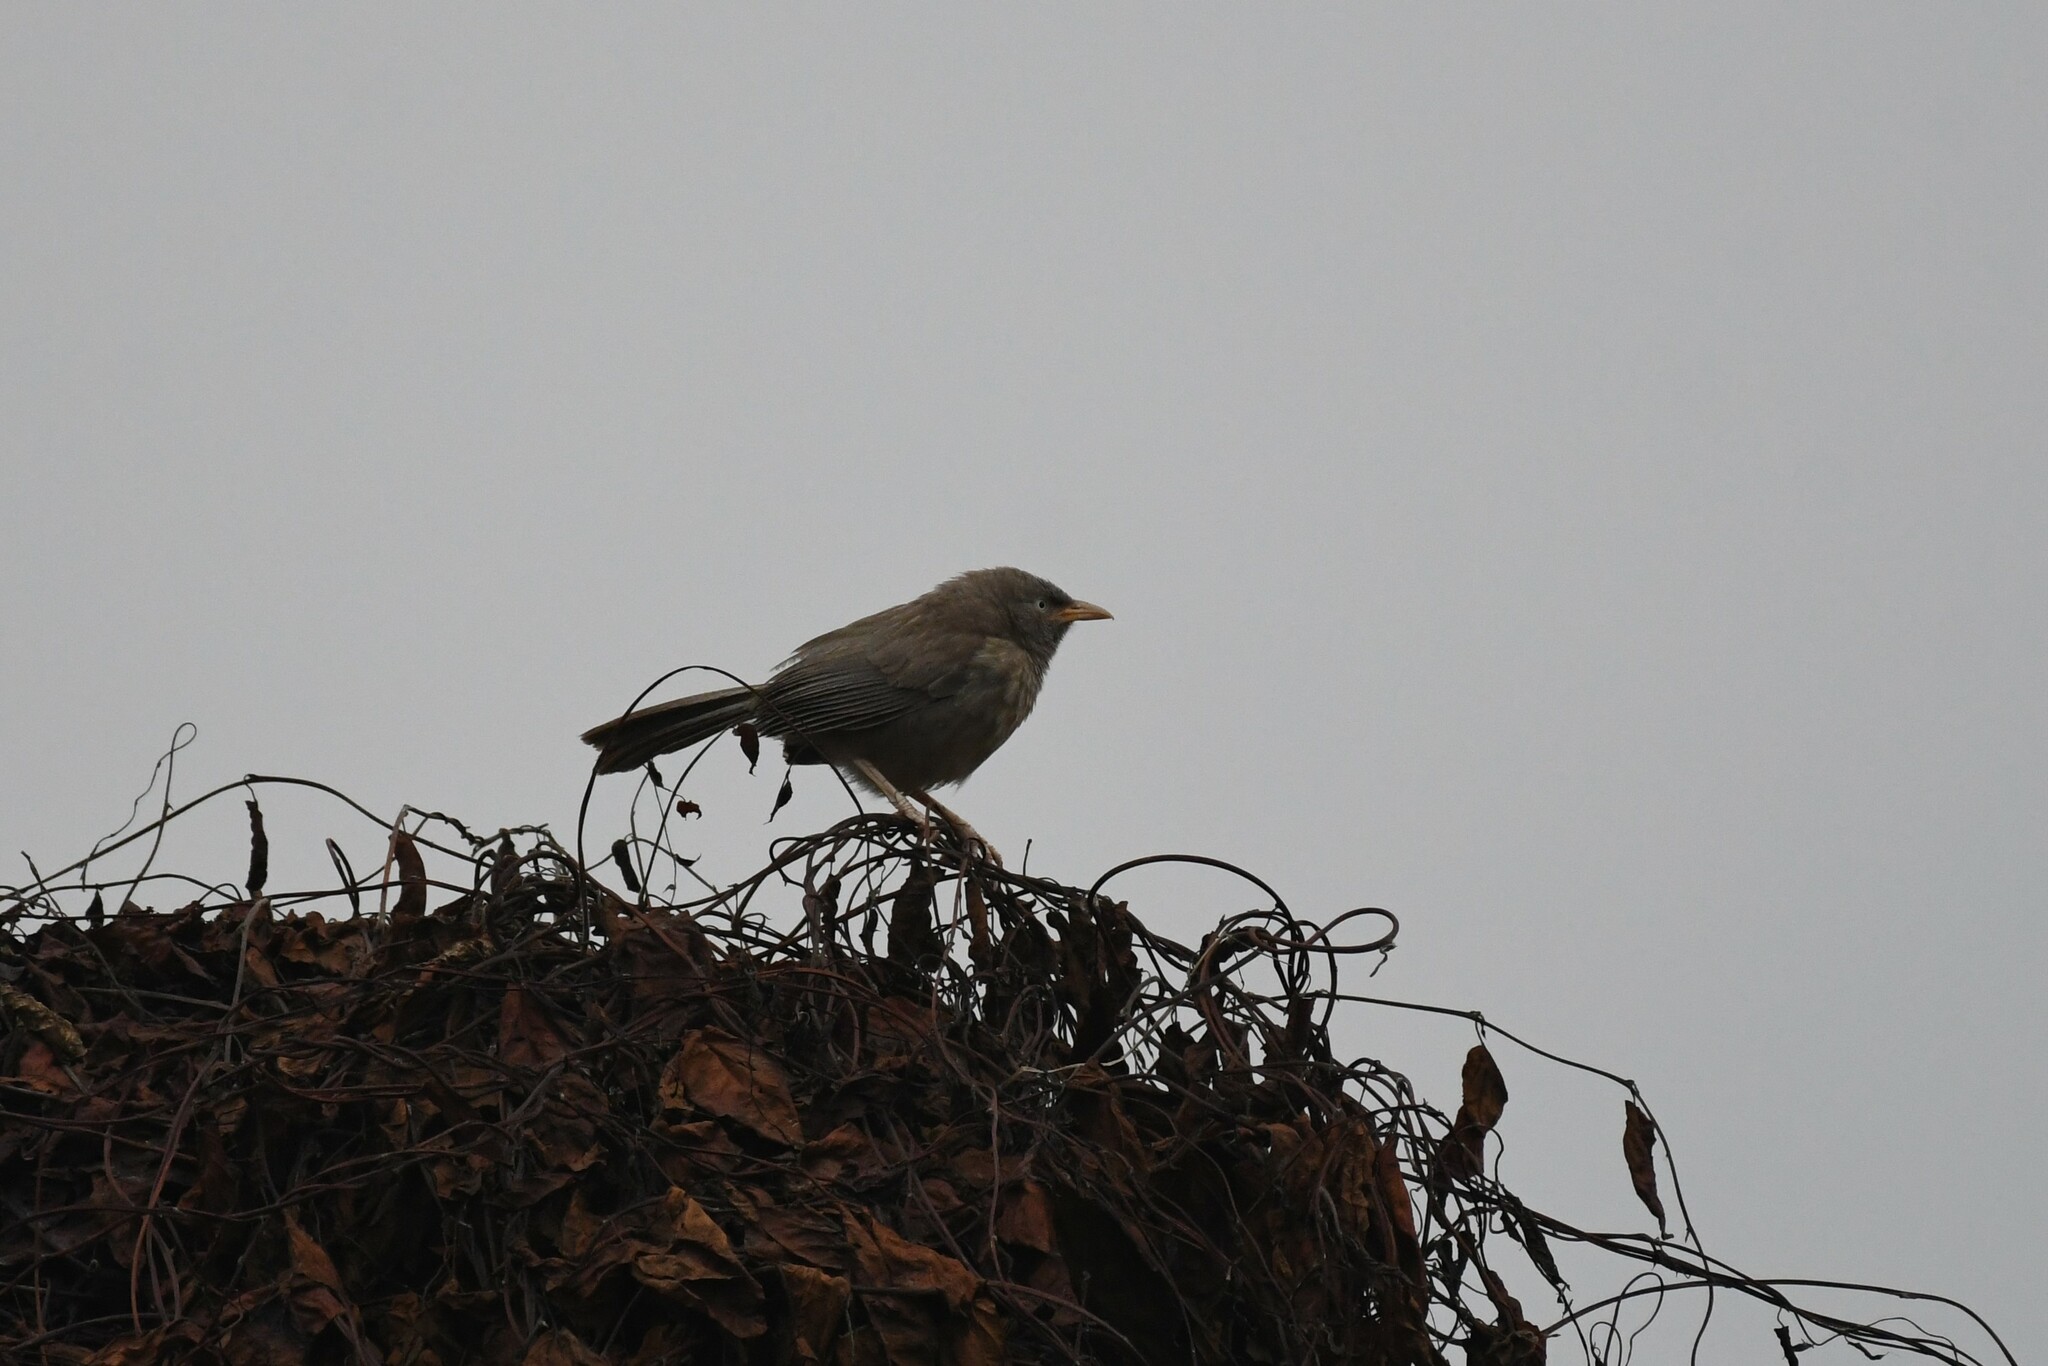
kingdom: Animalia
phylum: Chordata
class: Aves
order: Passeriformes
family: Leiothrichidae
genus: Turdoides
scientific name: Turdoides striata
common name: Jungle babbler
